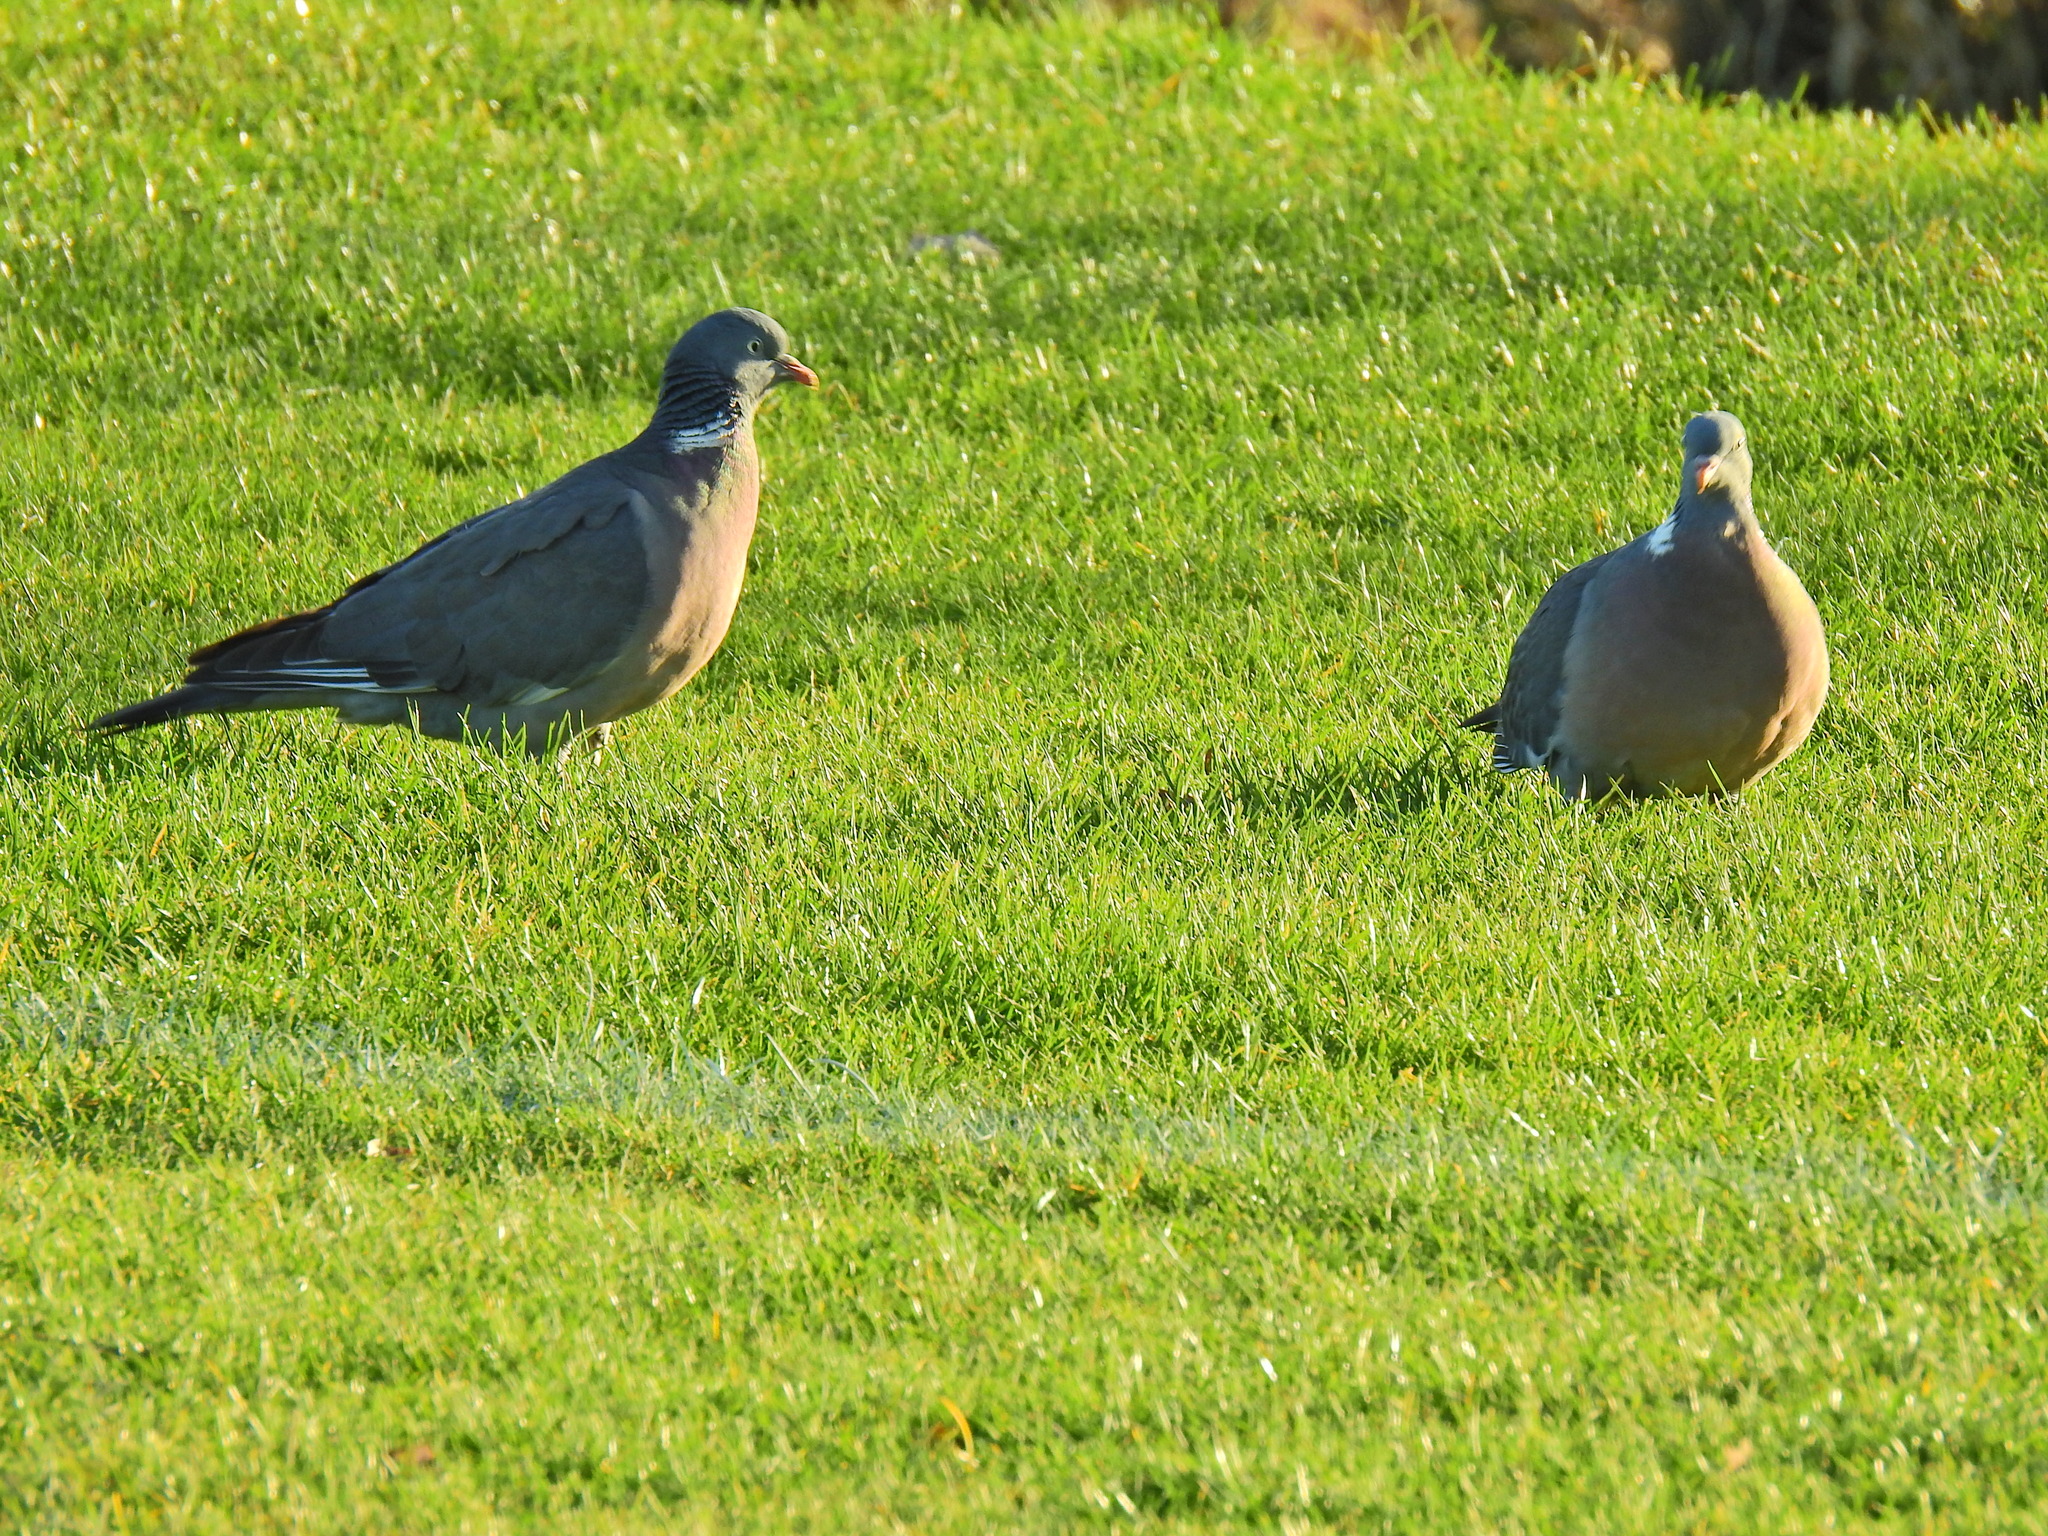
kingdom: Animalia
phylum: Chordata
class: Aves
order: Columbiformes
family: Columbidae
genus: Columba
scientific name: Columba palumbus
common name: Common wood pigeon
